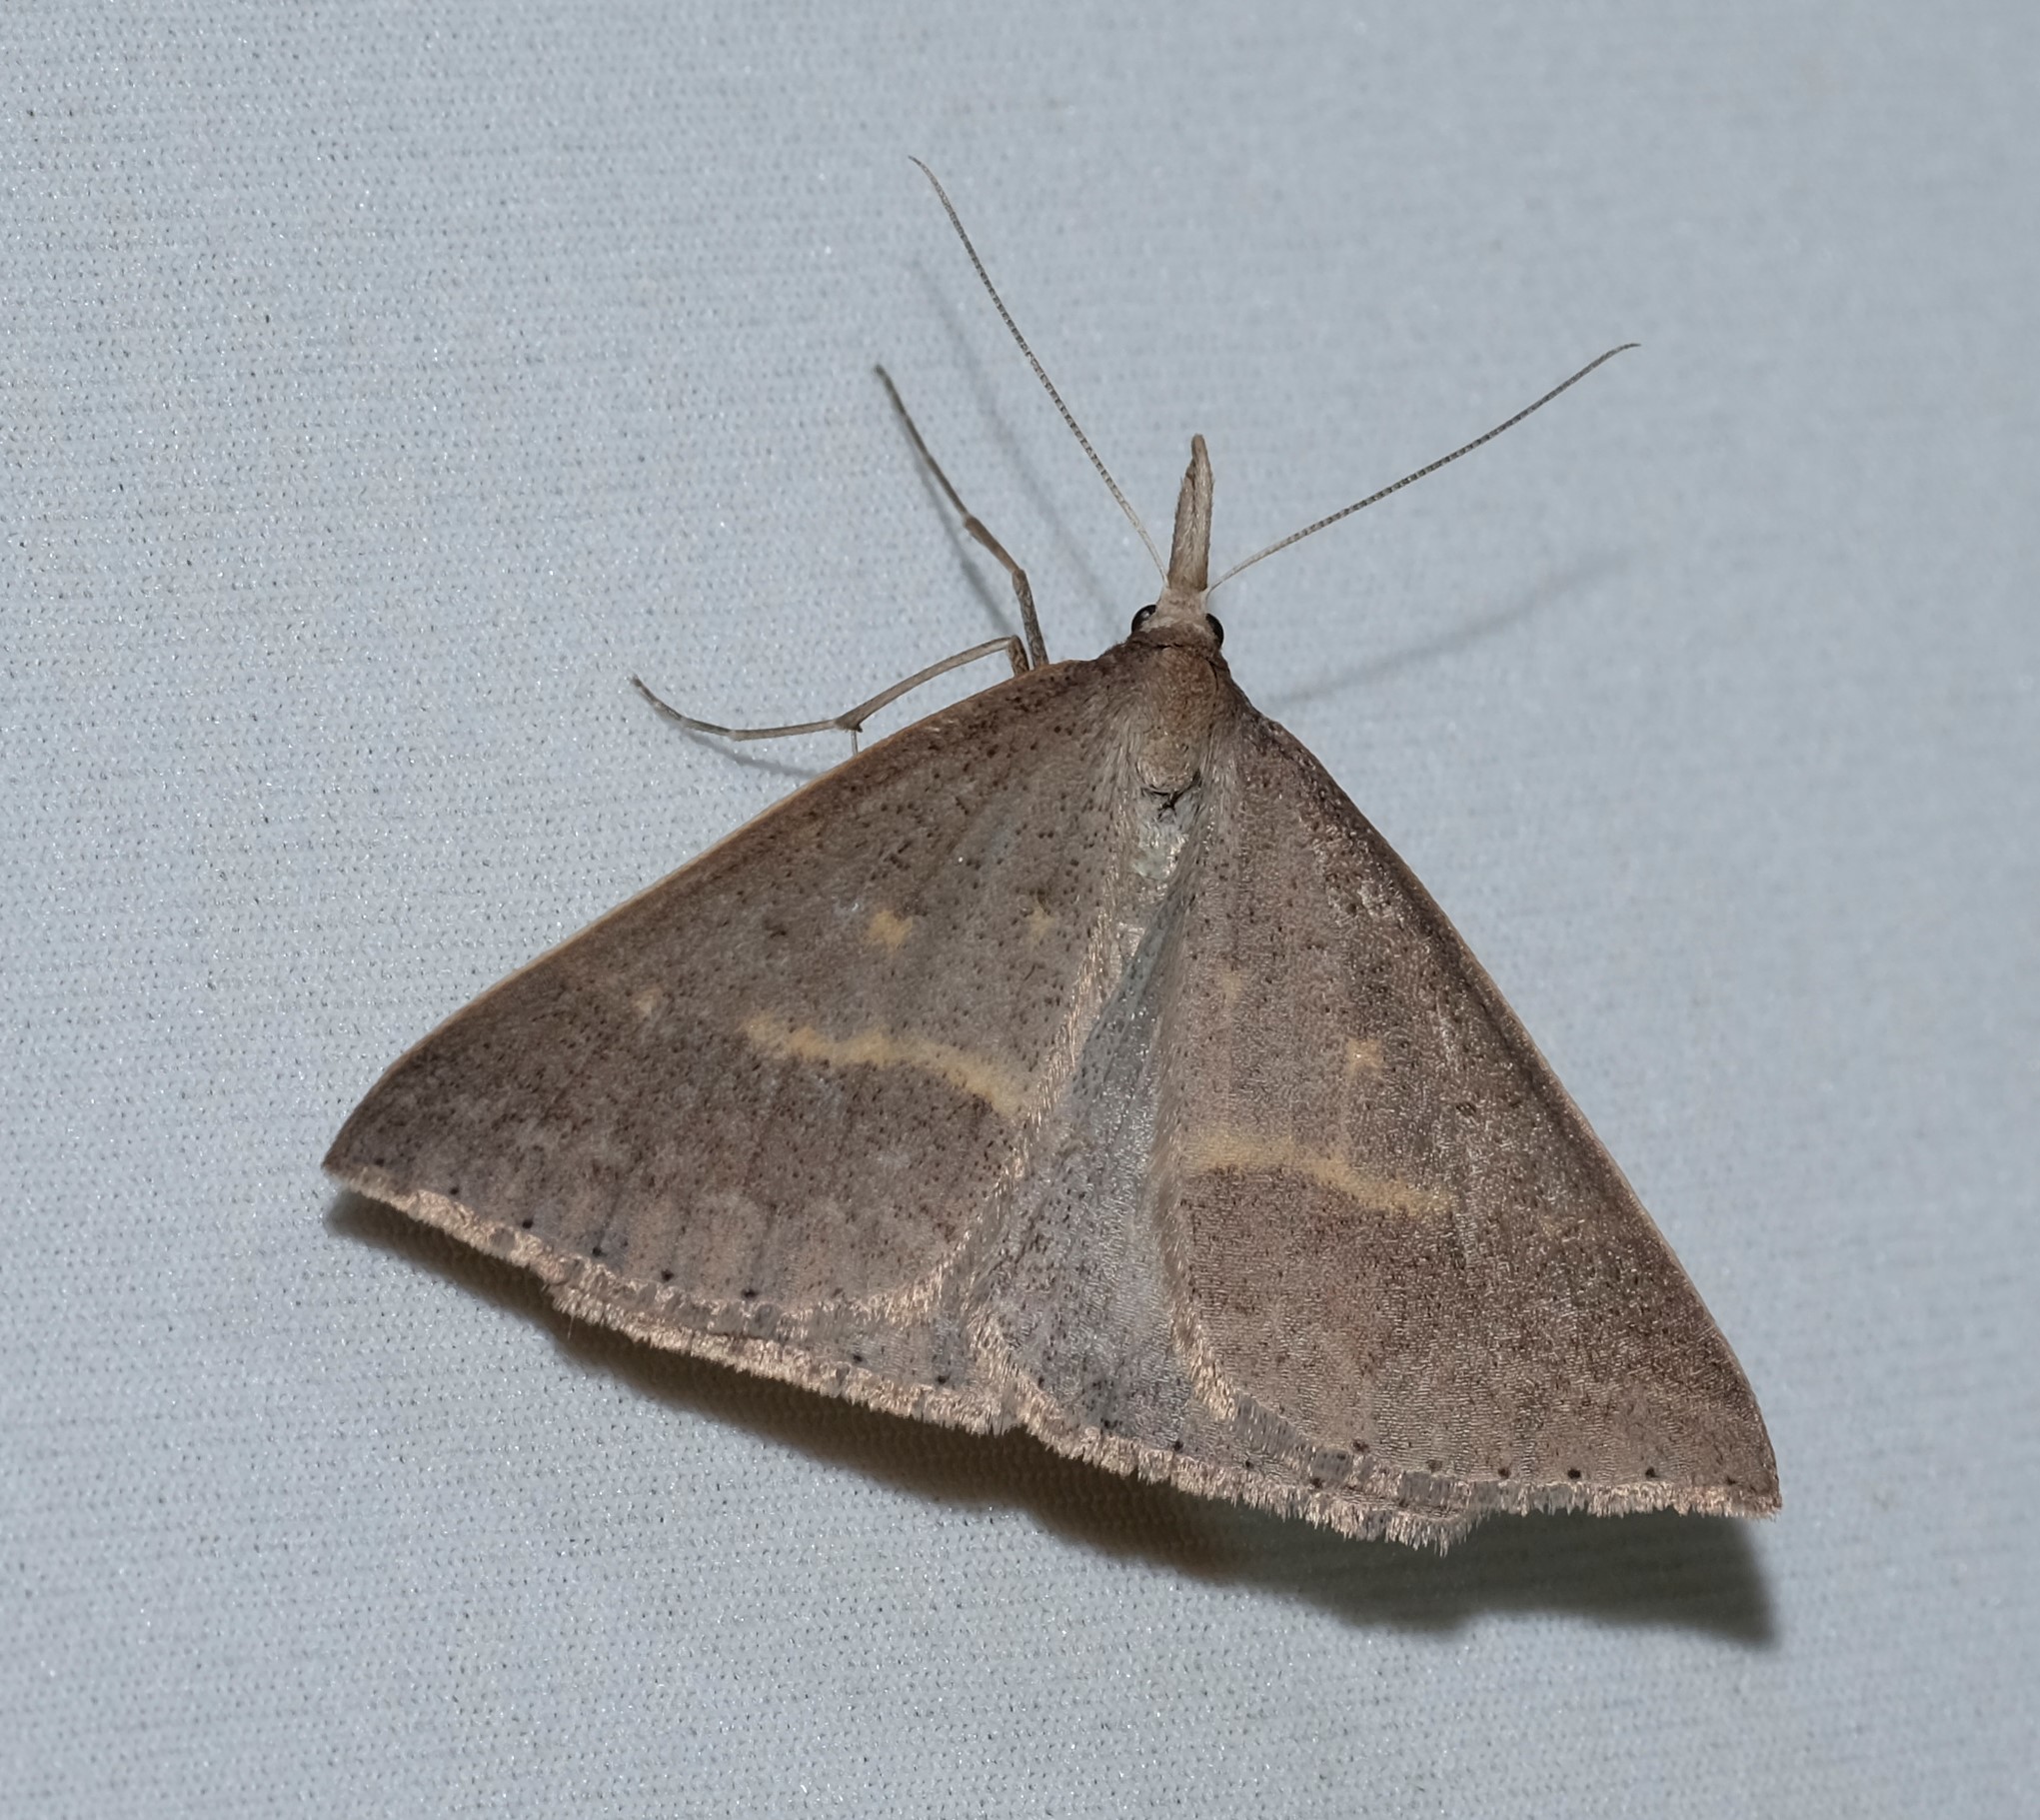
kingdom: Animalia
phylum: Arthropoda
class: Insecta
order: Lepidoptera
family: Geometridae
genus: Epidesmia
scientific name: Epidesmia hypenaria
